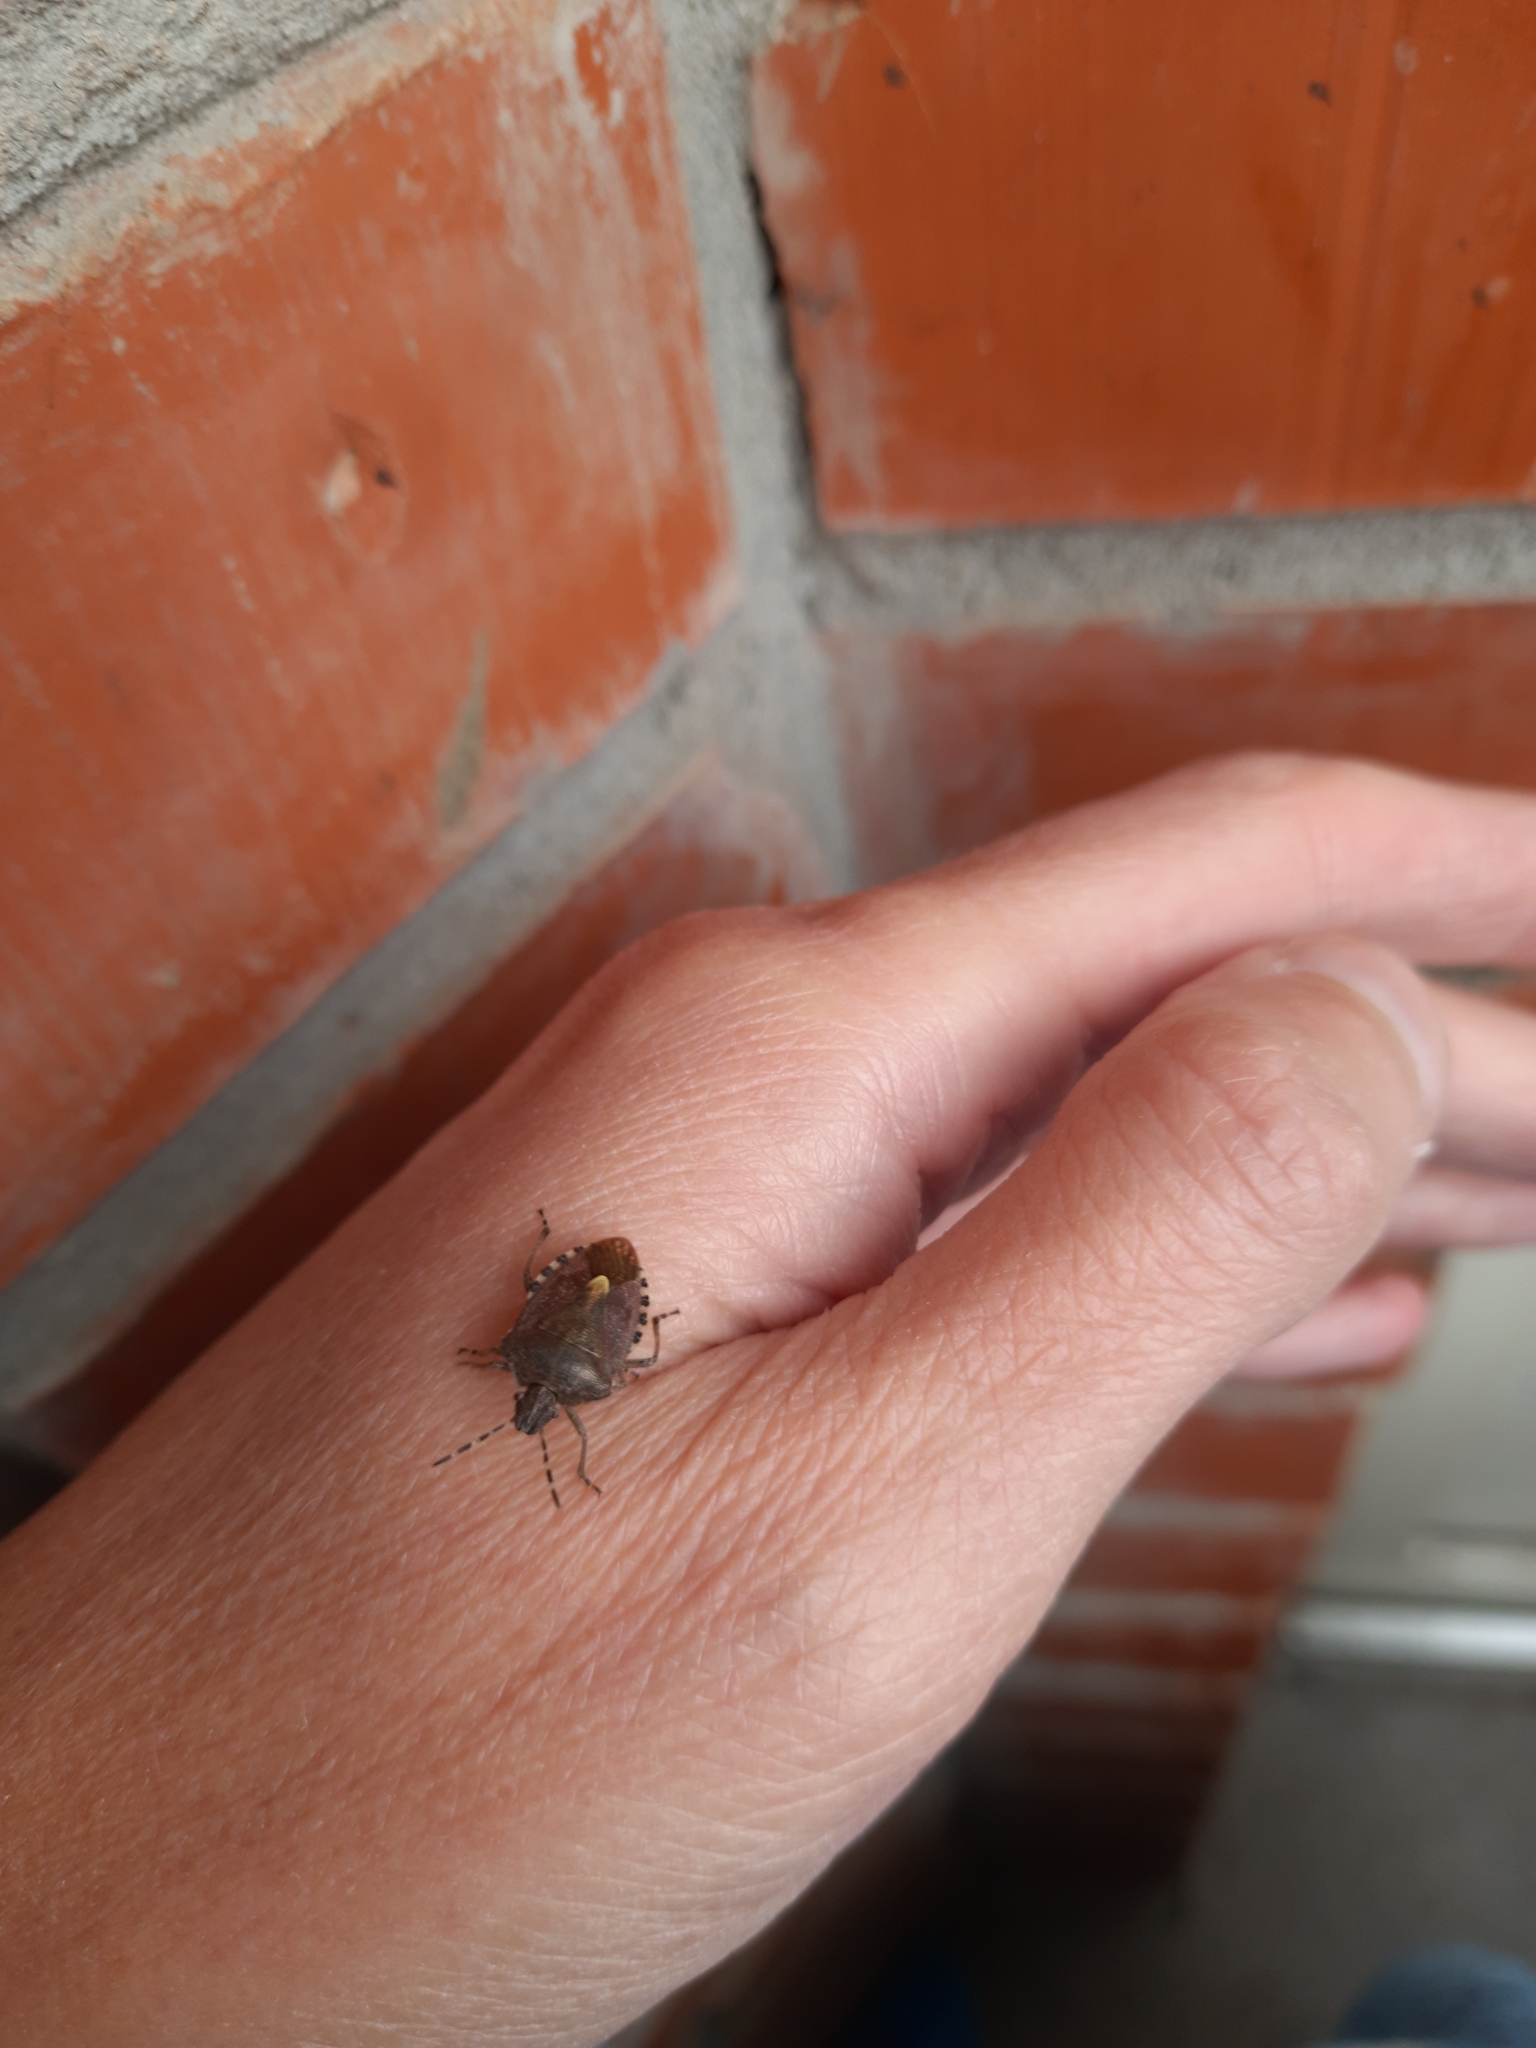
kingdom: Animalia
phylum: Arthropoda
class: Insecta
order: Hemiptera
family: Pentatomidae
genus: Dolycoris
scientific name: Dolycoris baccarum
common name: Sloe bug
